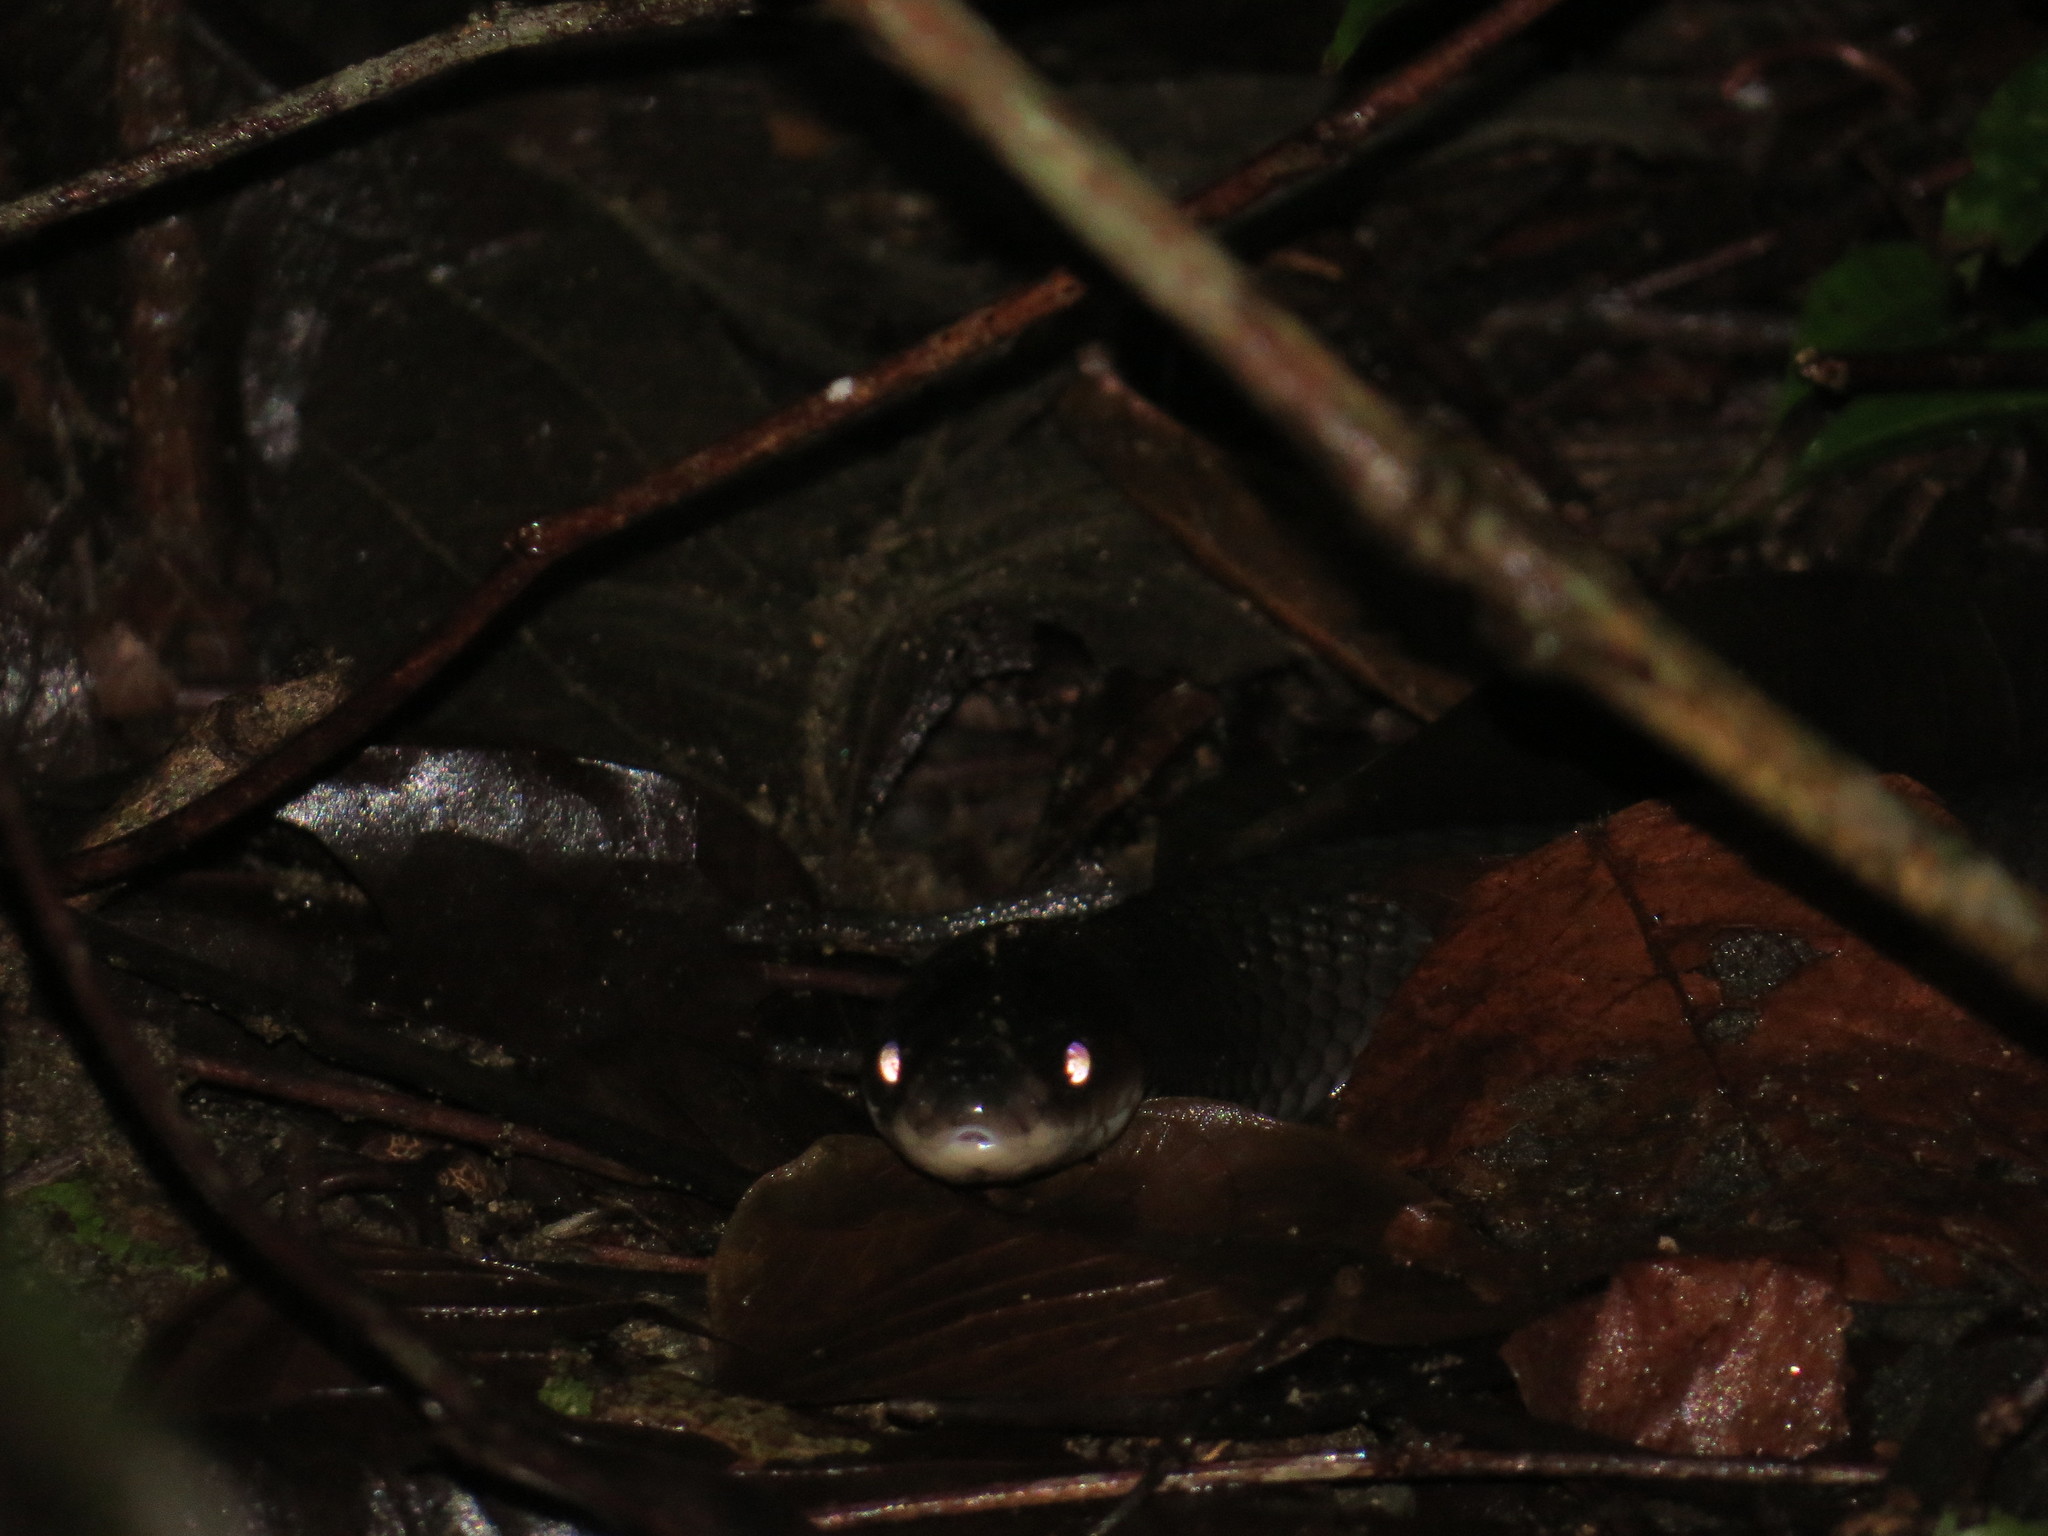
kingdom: Animalia
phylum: Chordata
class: Squamata
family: Colubridae
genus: Clelia
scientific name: Clelia clelia
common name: Mussurana
